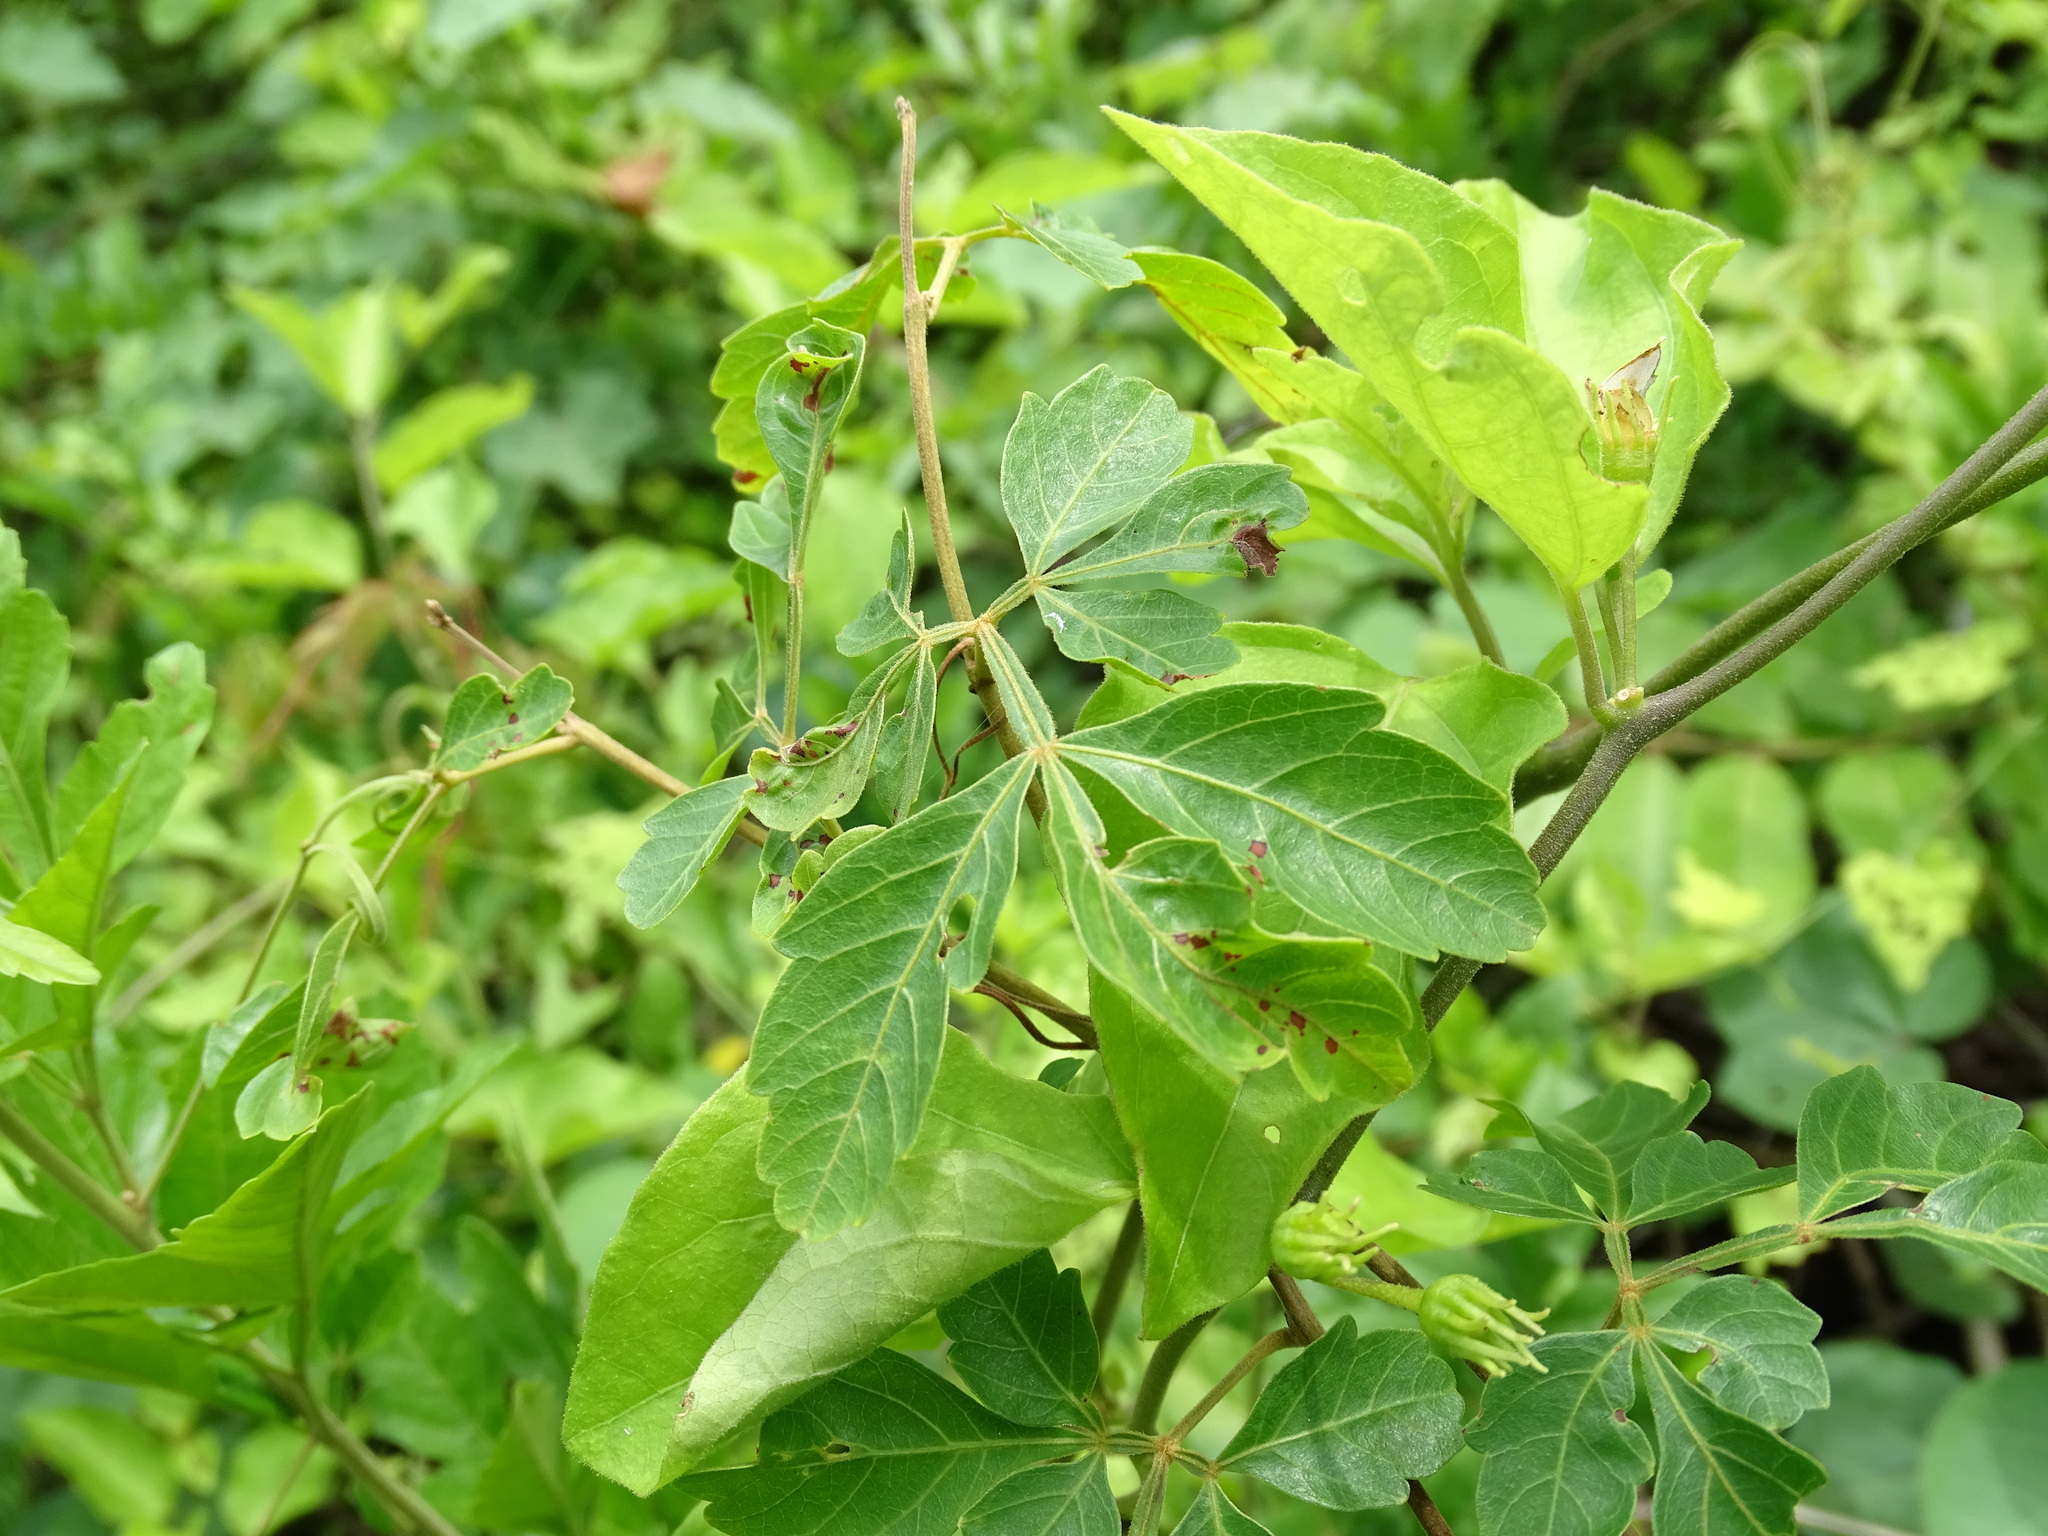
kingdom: Plantae
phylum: Tracheophyta
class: Magnoliopsida
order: Sapindales
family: Sapindaceae
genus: Paullinia
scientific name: Paullinia fuscescens
